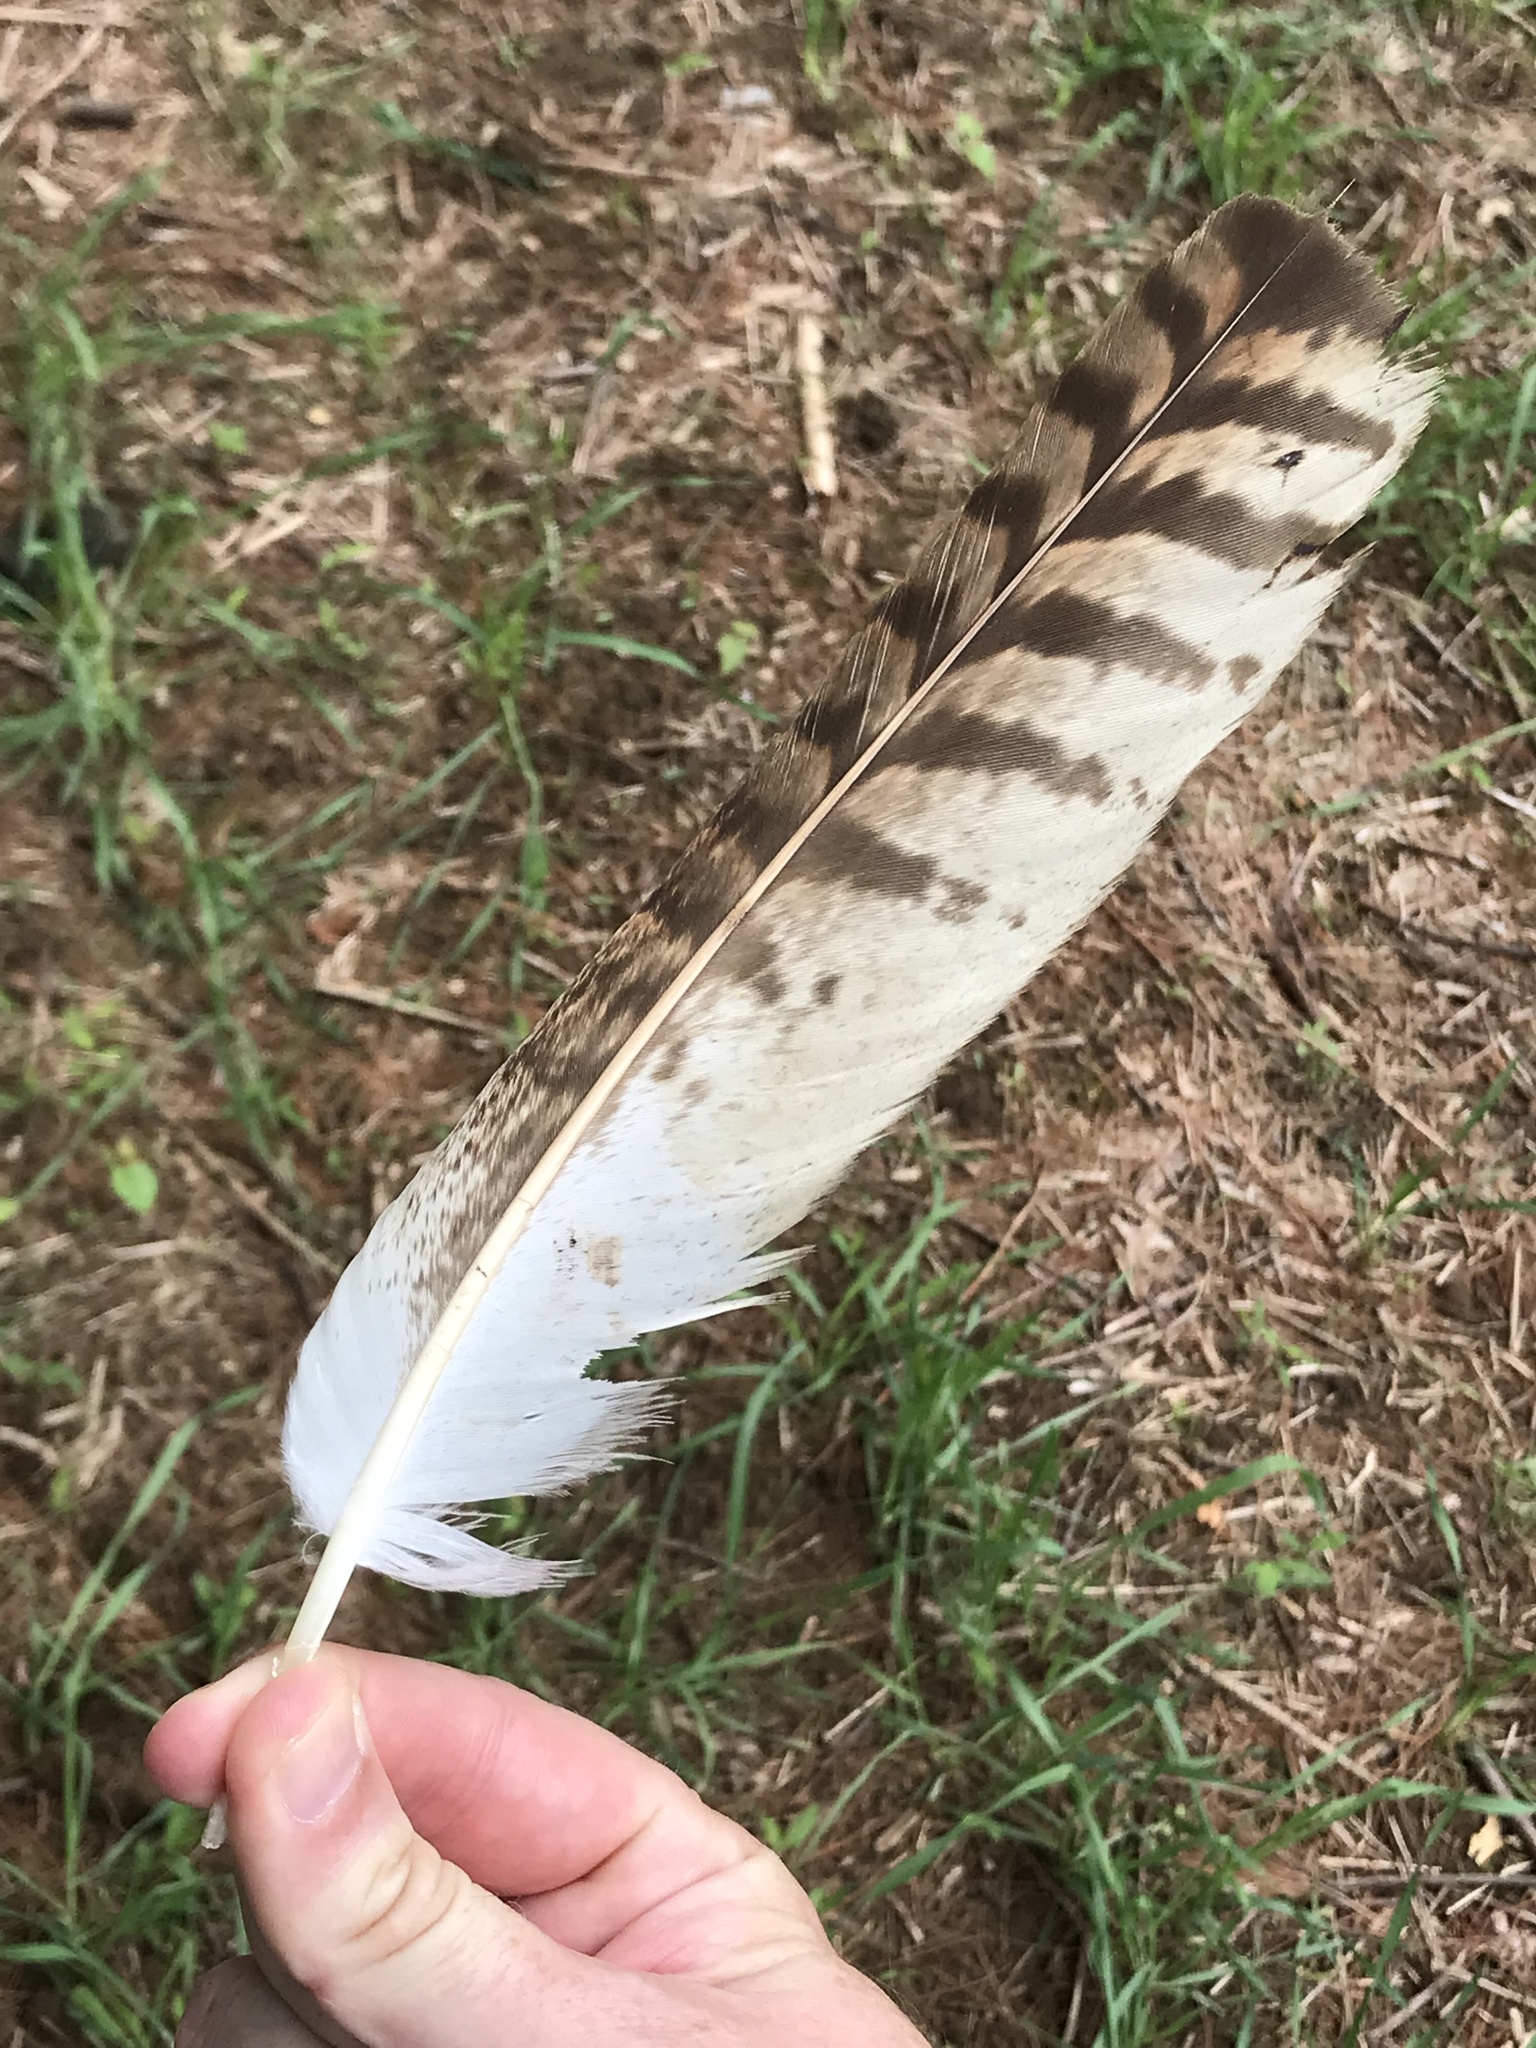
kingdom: Animalia
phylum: Chordata
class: Aves
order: Accipitriformes
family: Accipitridae
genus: Buteo
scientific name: Buteo jamaicensis
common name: Red-tailed hawk
